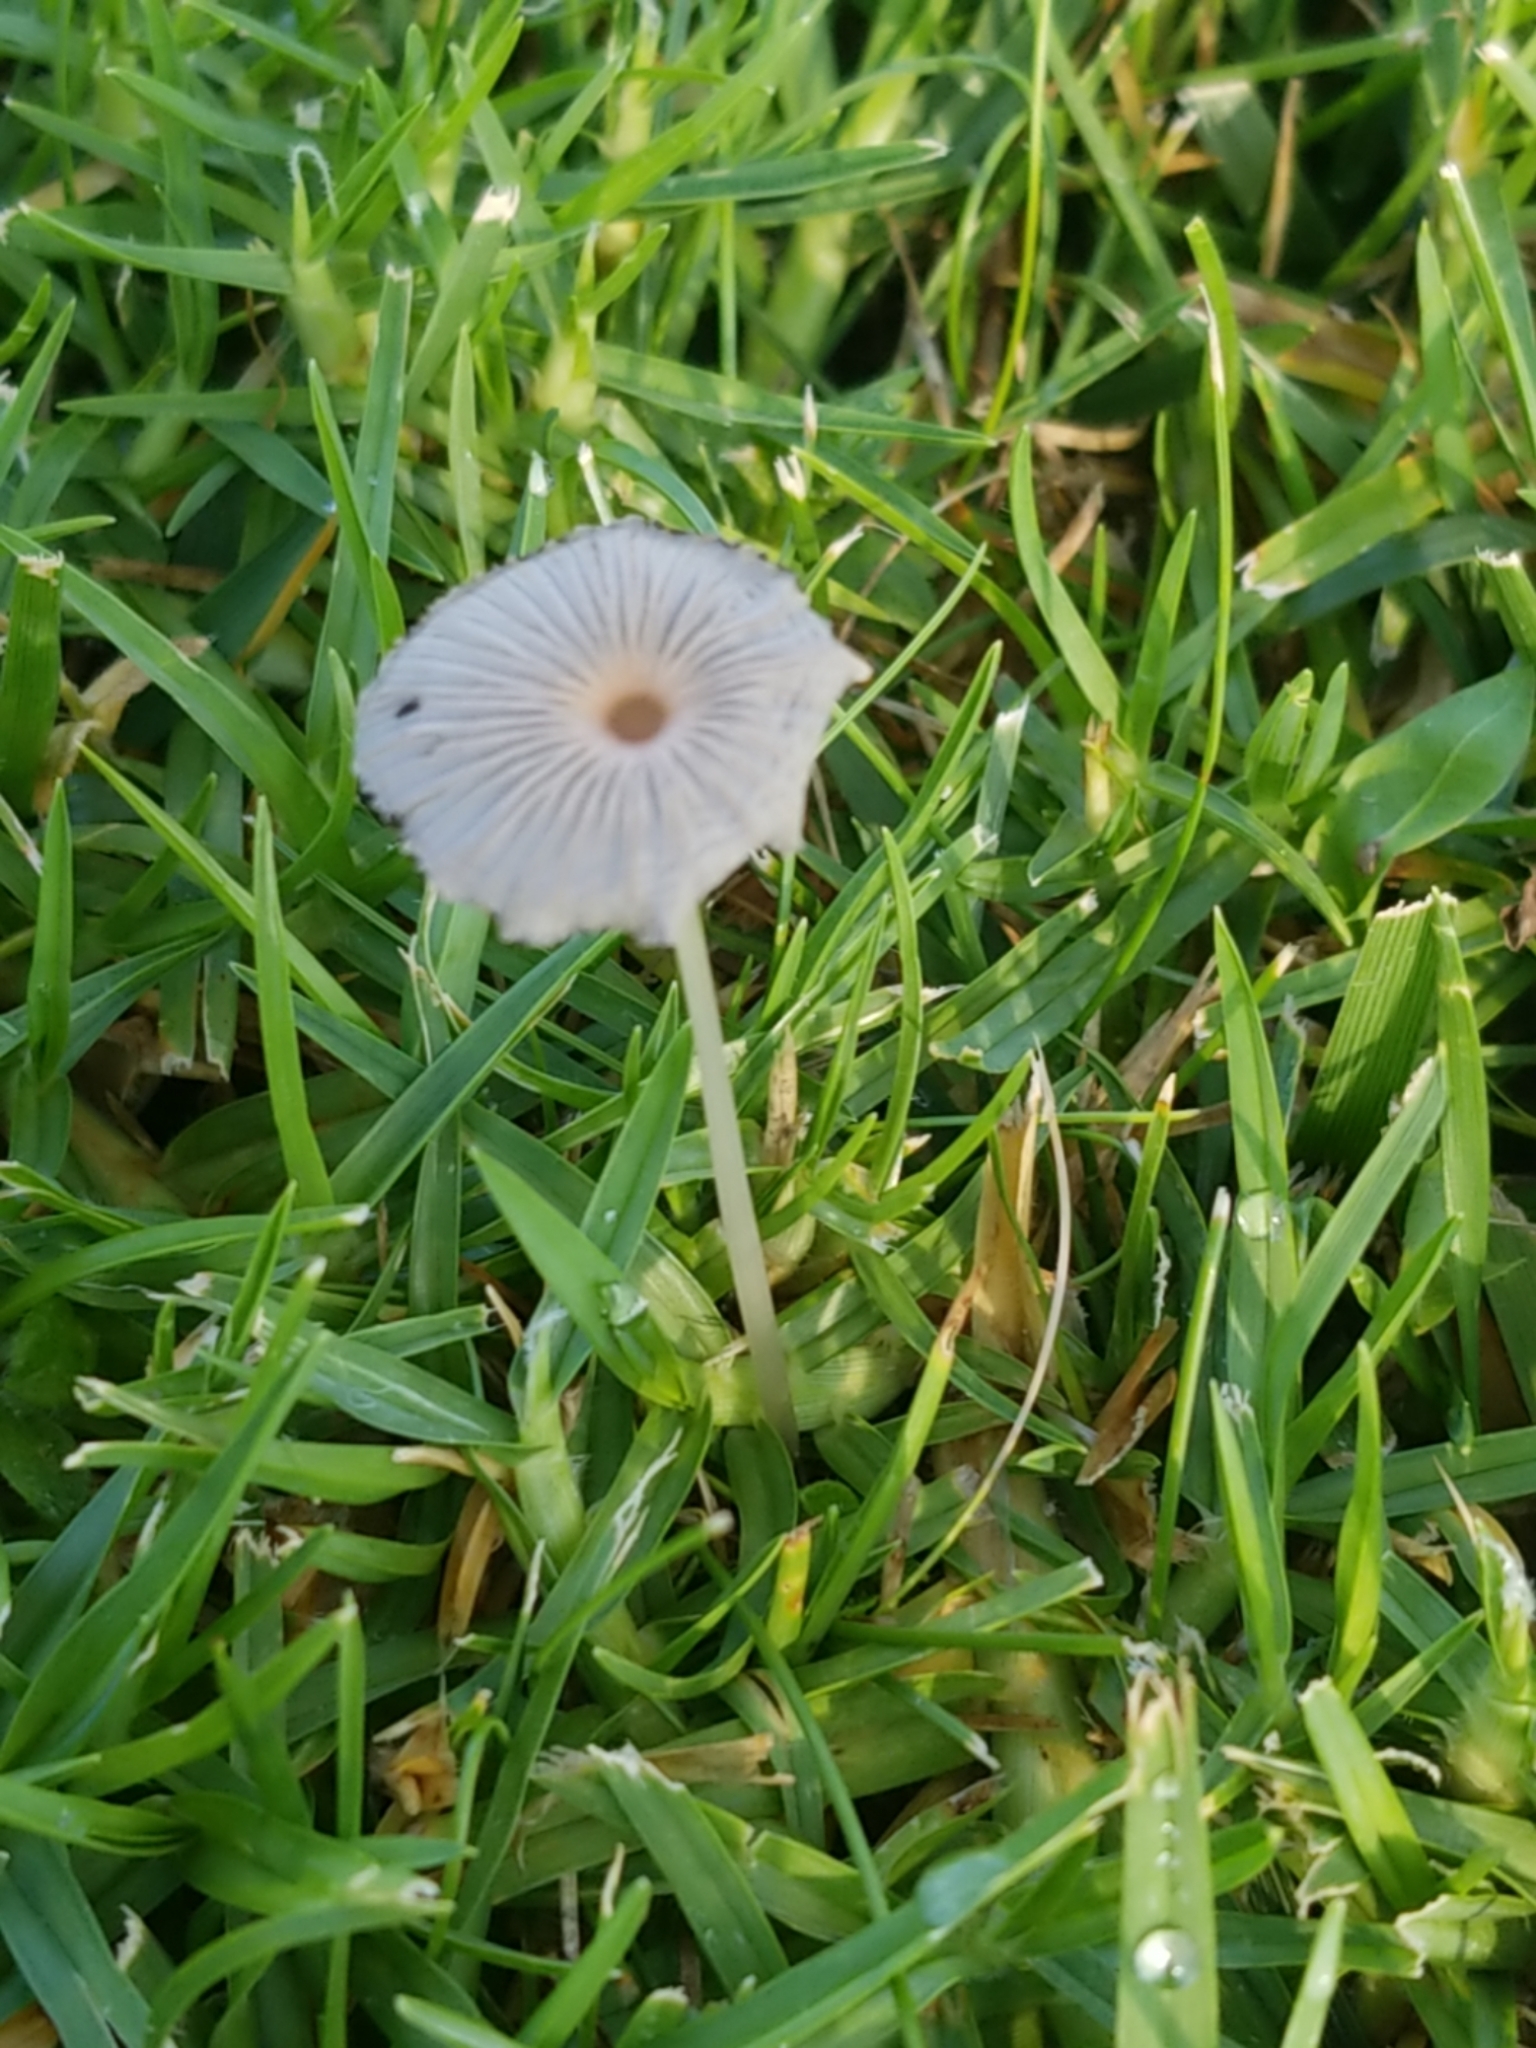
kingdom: Fungi
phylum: Basidiomycota
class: Agaricomycetes
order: Agaricales
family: Psathyrellaceae
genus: Parasola
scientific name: Parasola plicatilis
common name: Pleated inkcap
